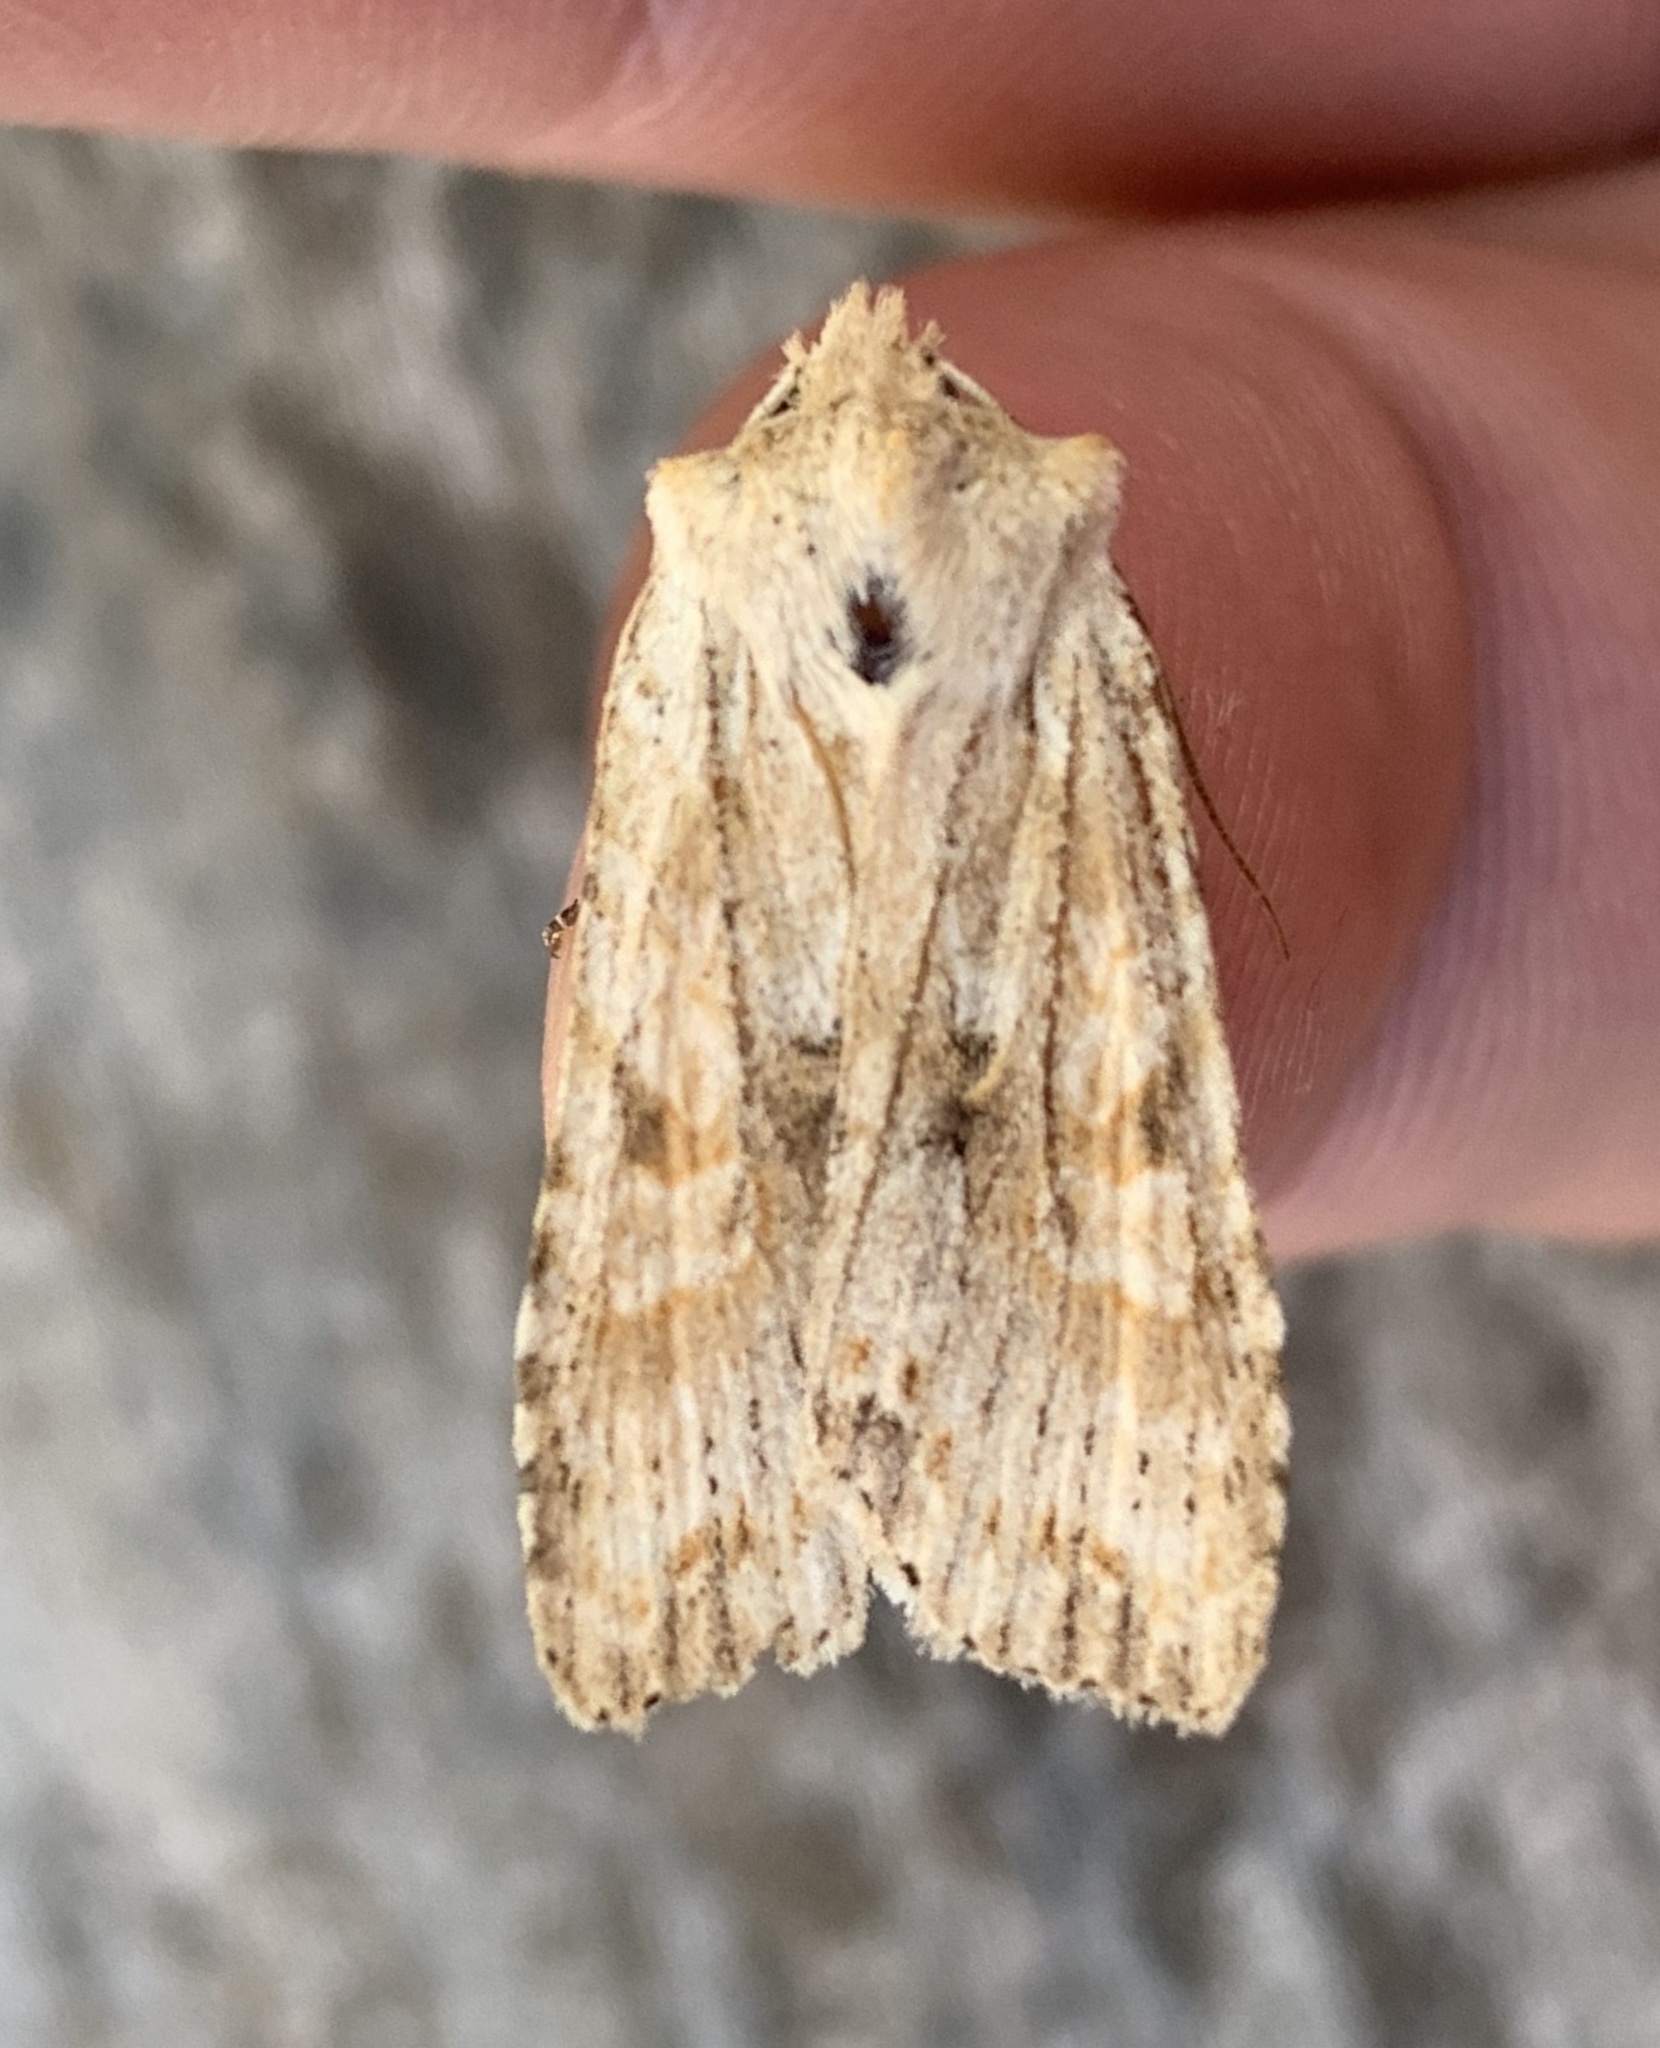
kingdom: Animalia
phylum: Arthropoda
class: Insecta
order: Lepidoptera
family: Noctuidae
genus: Lithophane
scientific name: Lithophane innominata
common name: Nameless pinion moth
